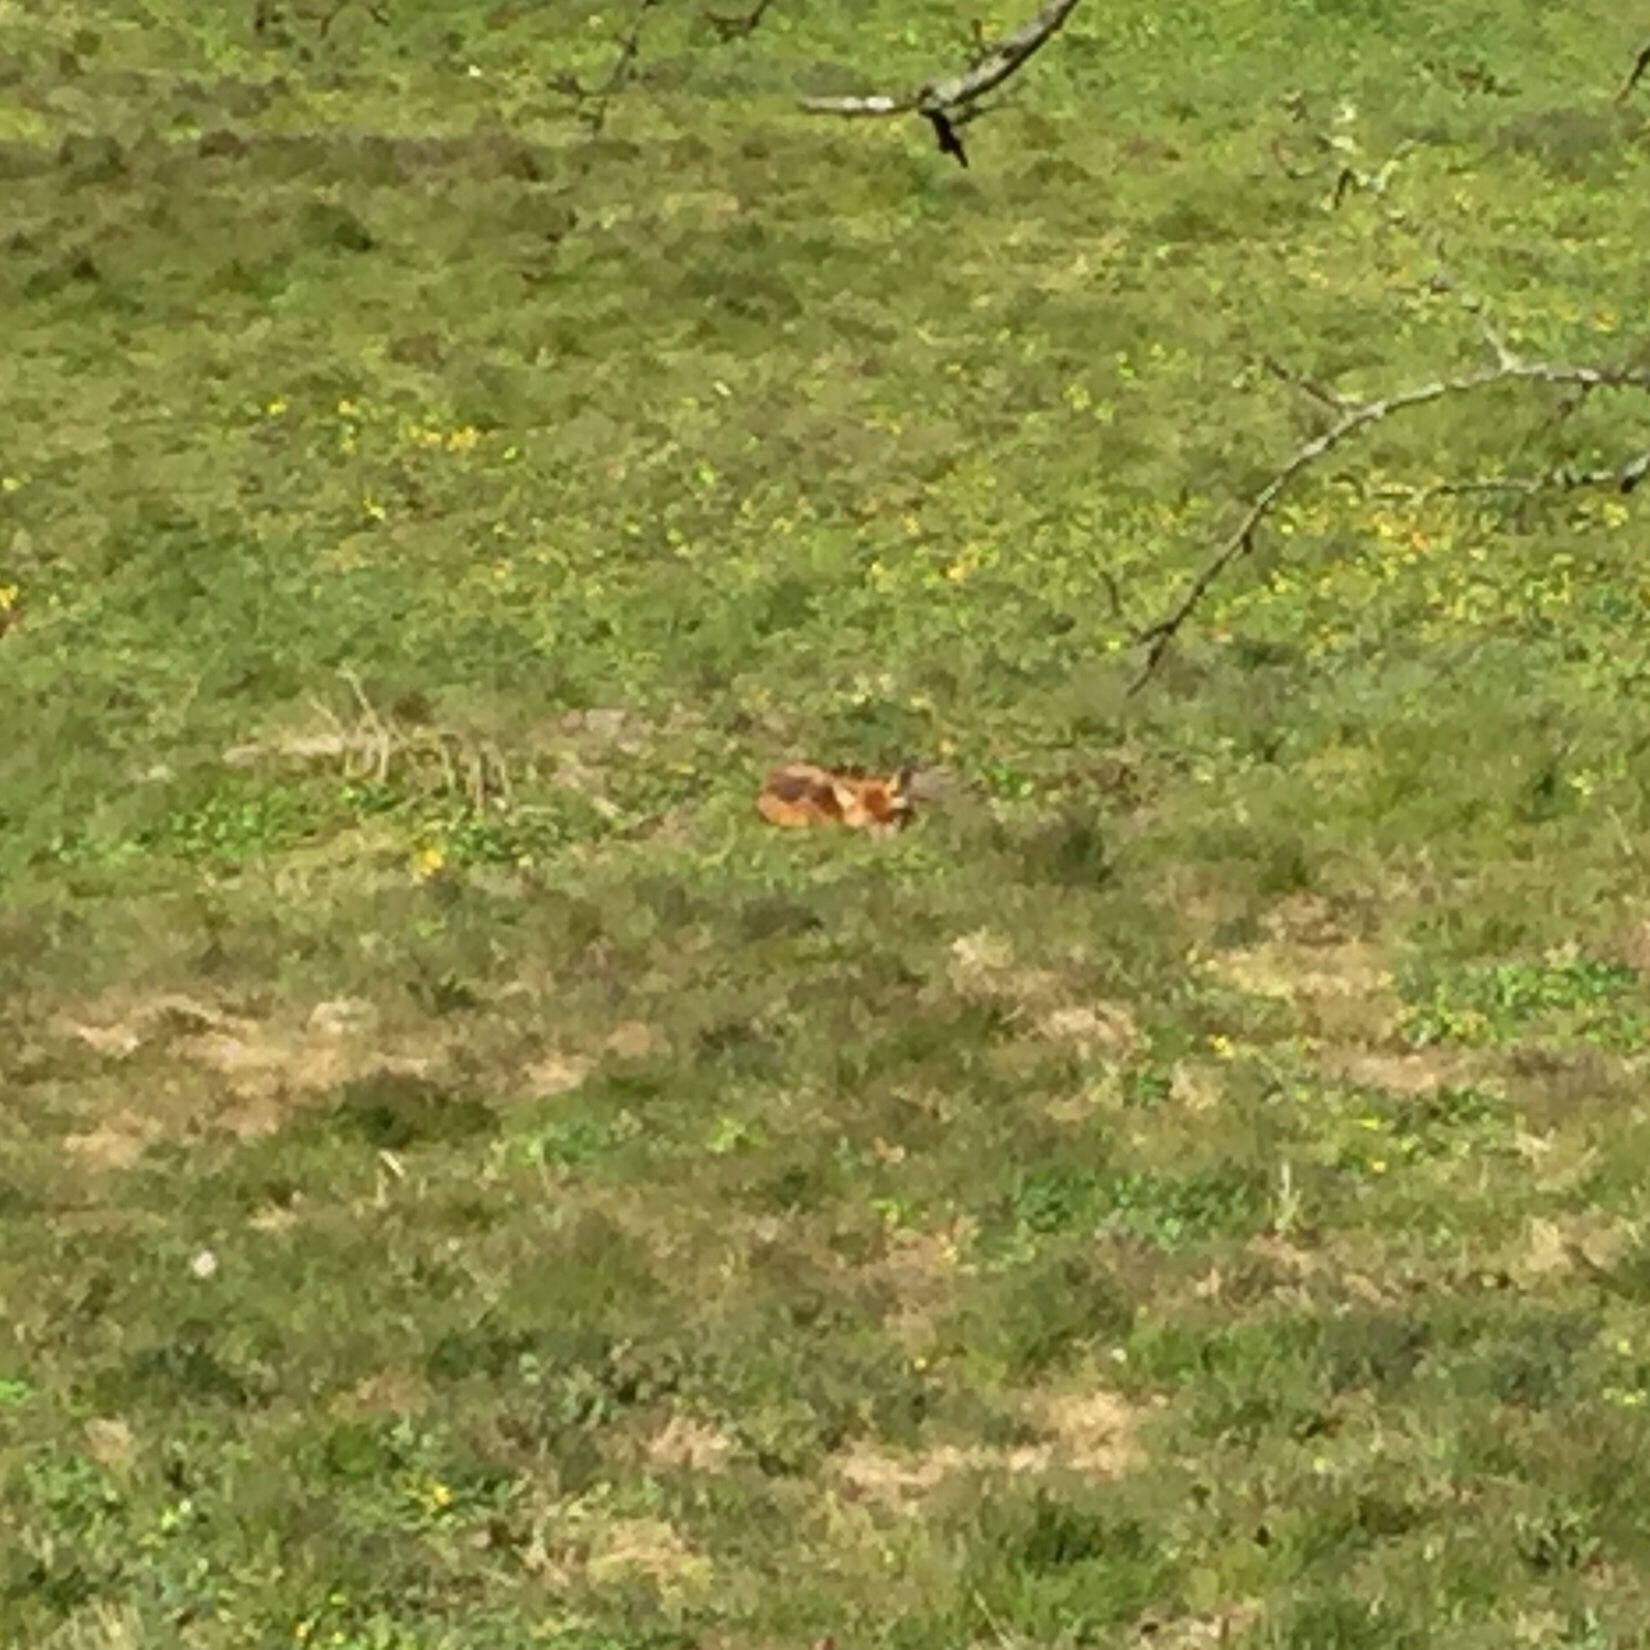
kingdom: Animalia
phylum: Chordata
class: Mammalia
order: Carnivora
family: Canidae
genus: Vulpes
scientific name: Vulpes vulpes
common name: Red fox
